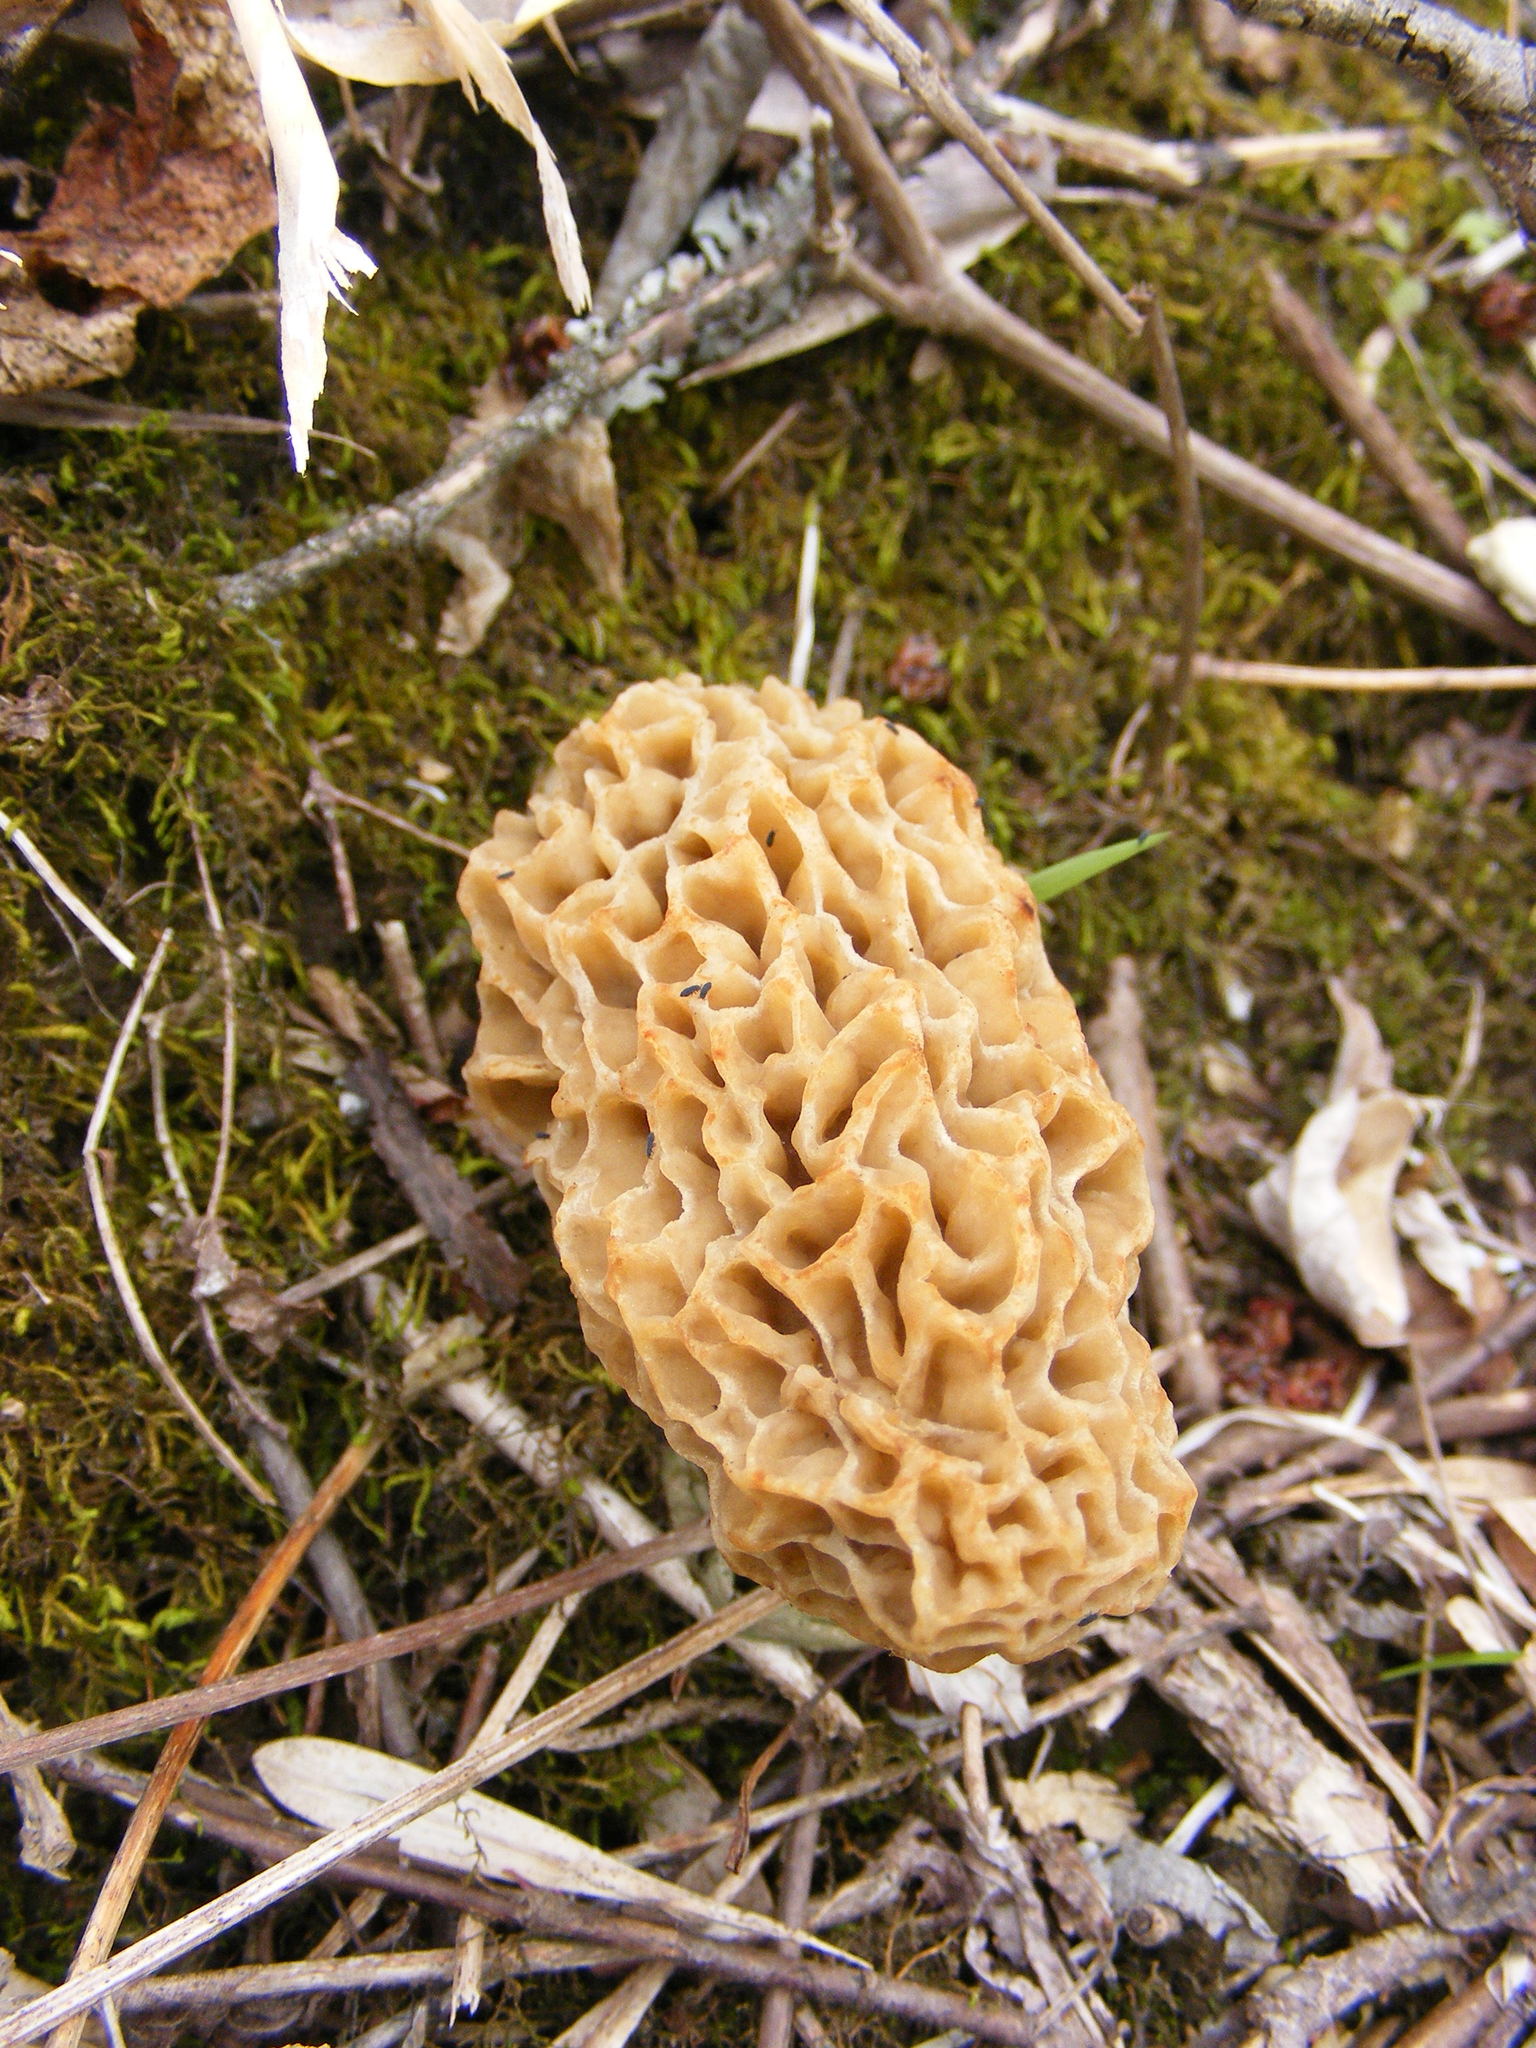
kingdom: Fungi
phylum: Ascomycota
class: Pezizomycetes
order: Pezizales
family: Morchellaceae
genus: Morchella
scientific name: Morchella americana
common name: White morel
